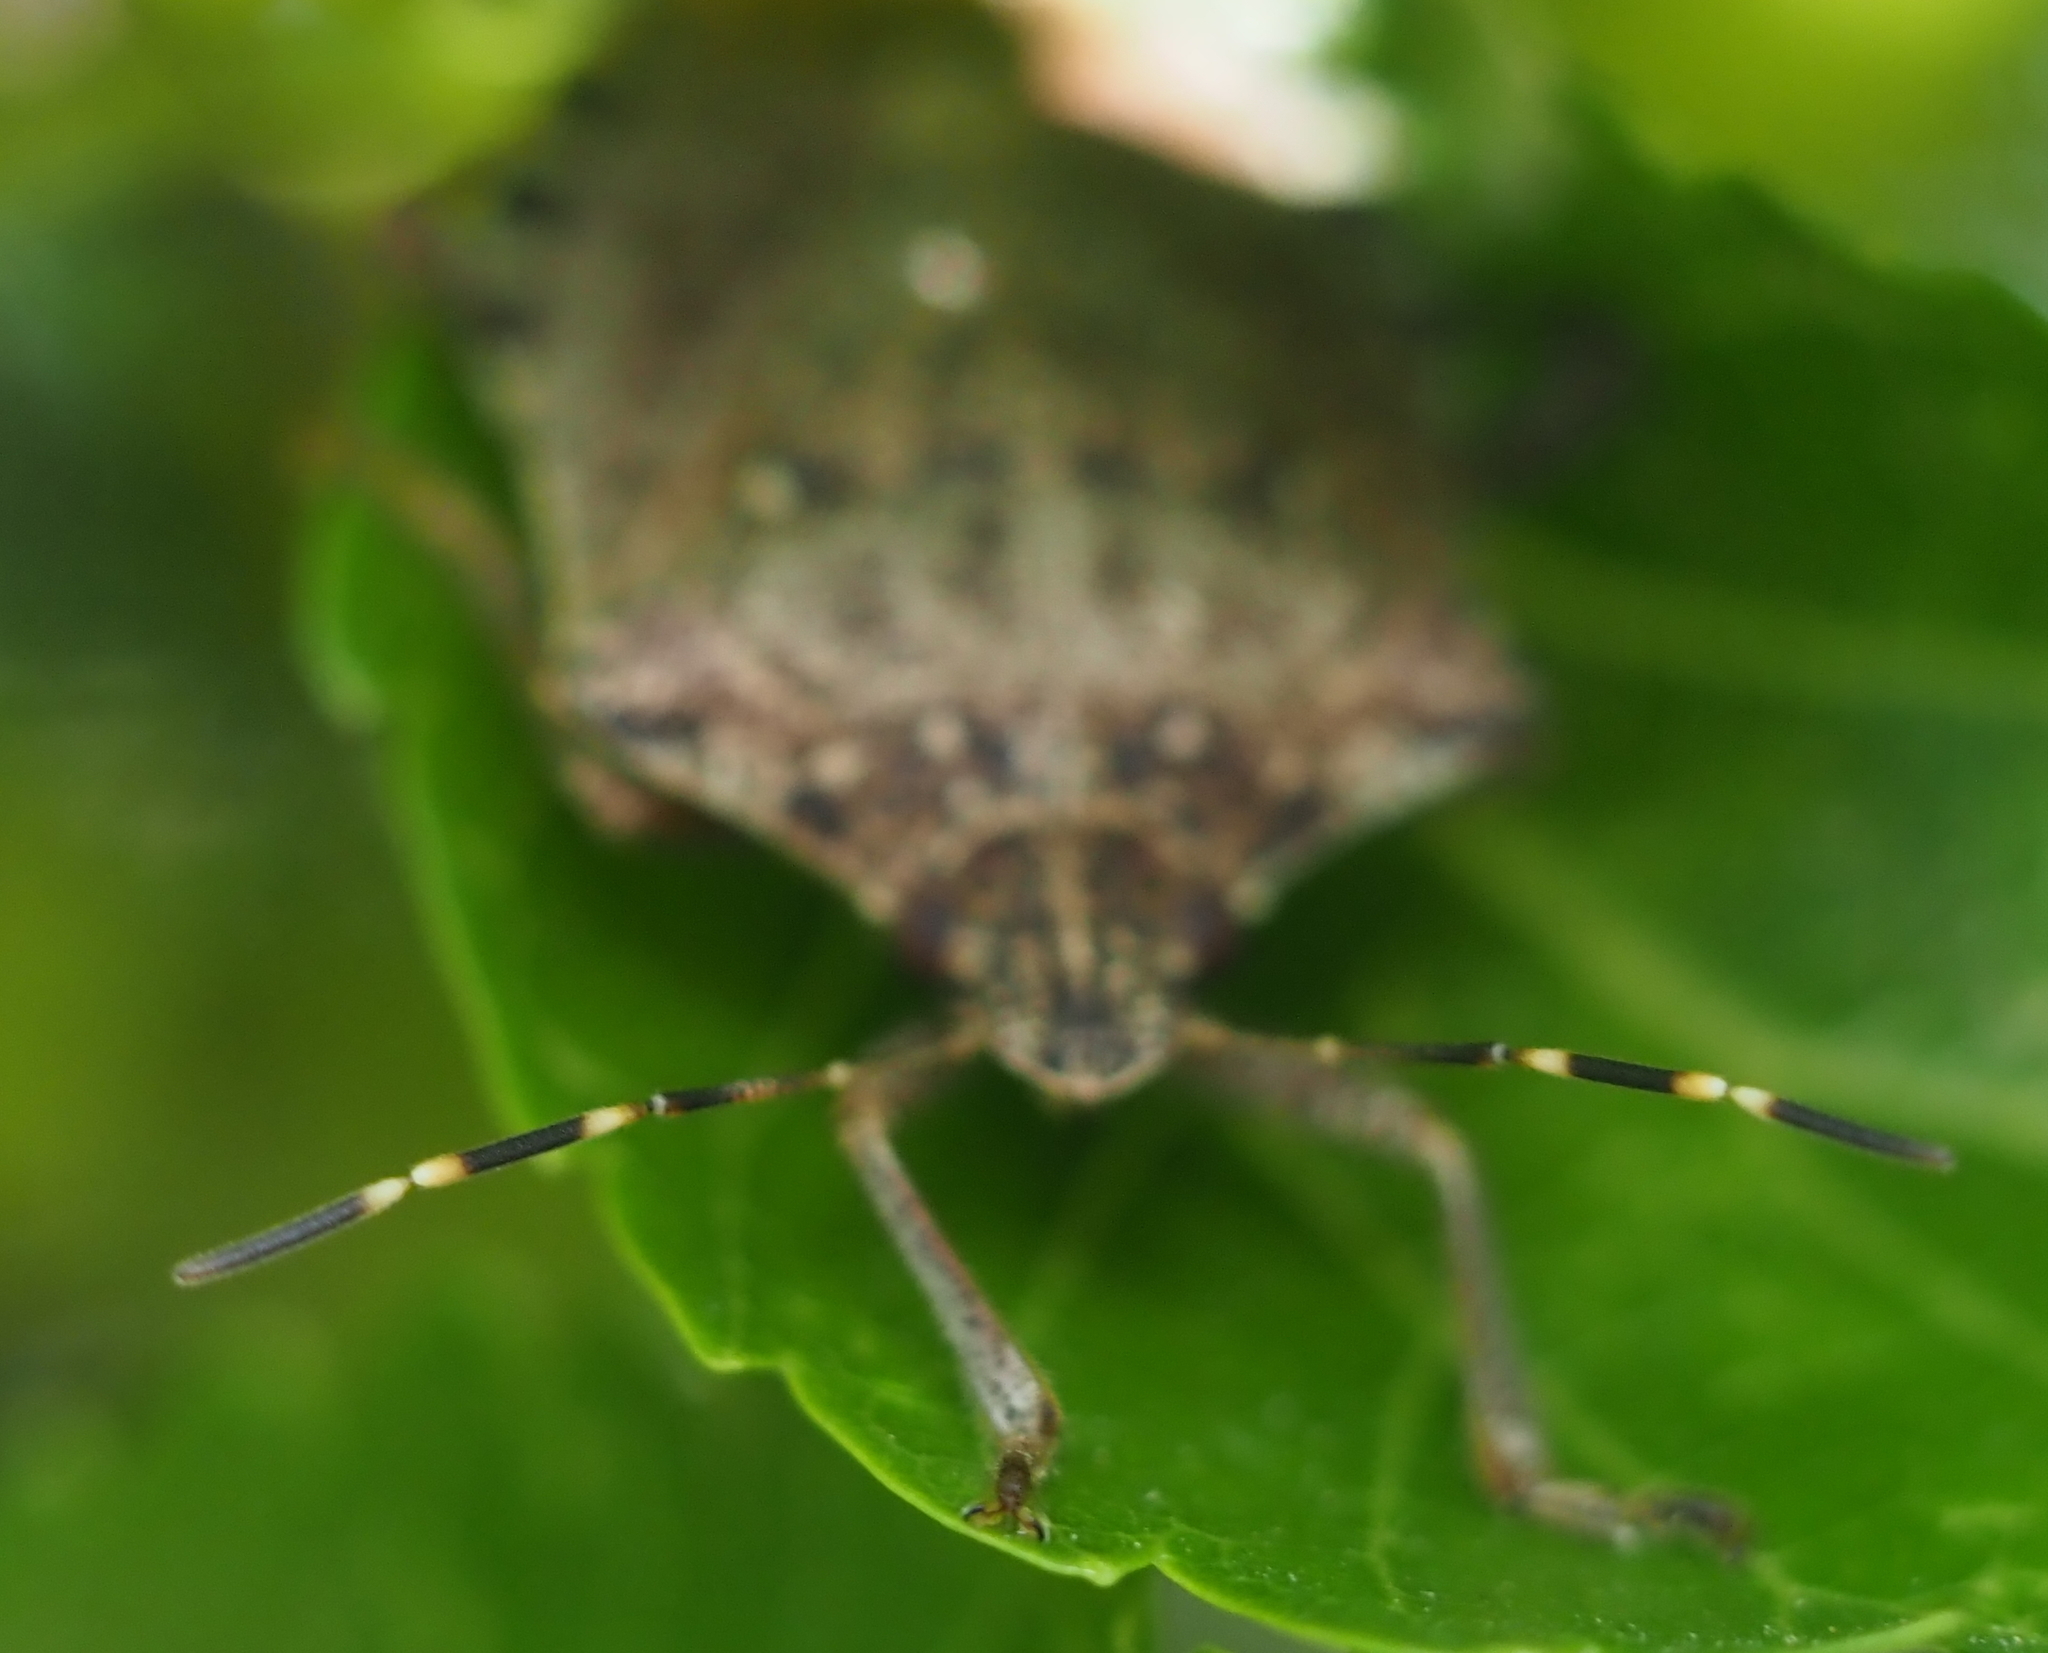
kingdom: Animalia
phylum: Arthropoda
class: Insecta
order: Hemiptera
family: Pentatomidae
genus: Halyomorpha
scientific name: Halyomorpha halys
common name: Brown marmorated stink bug
